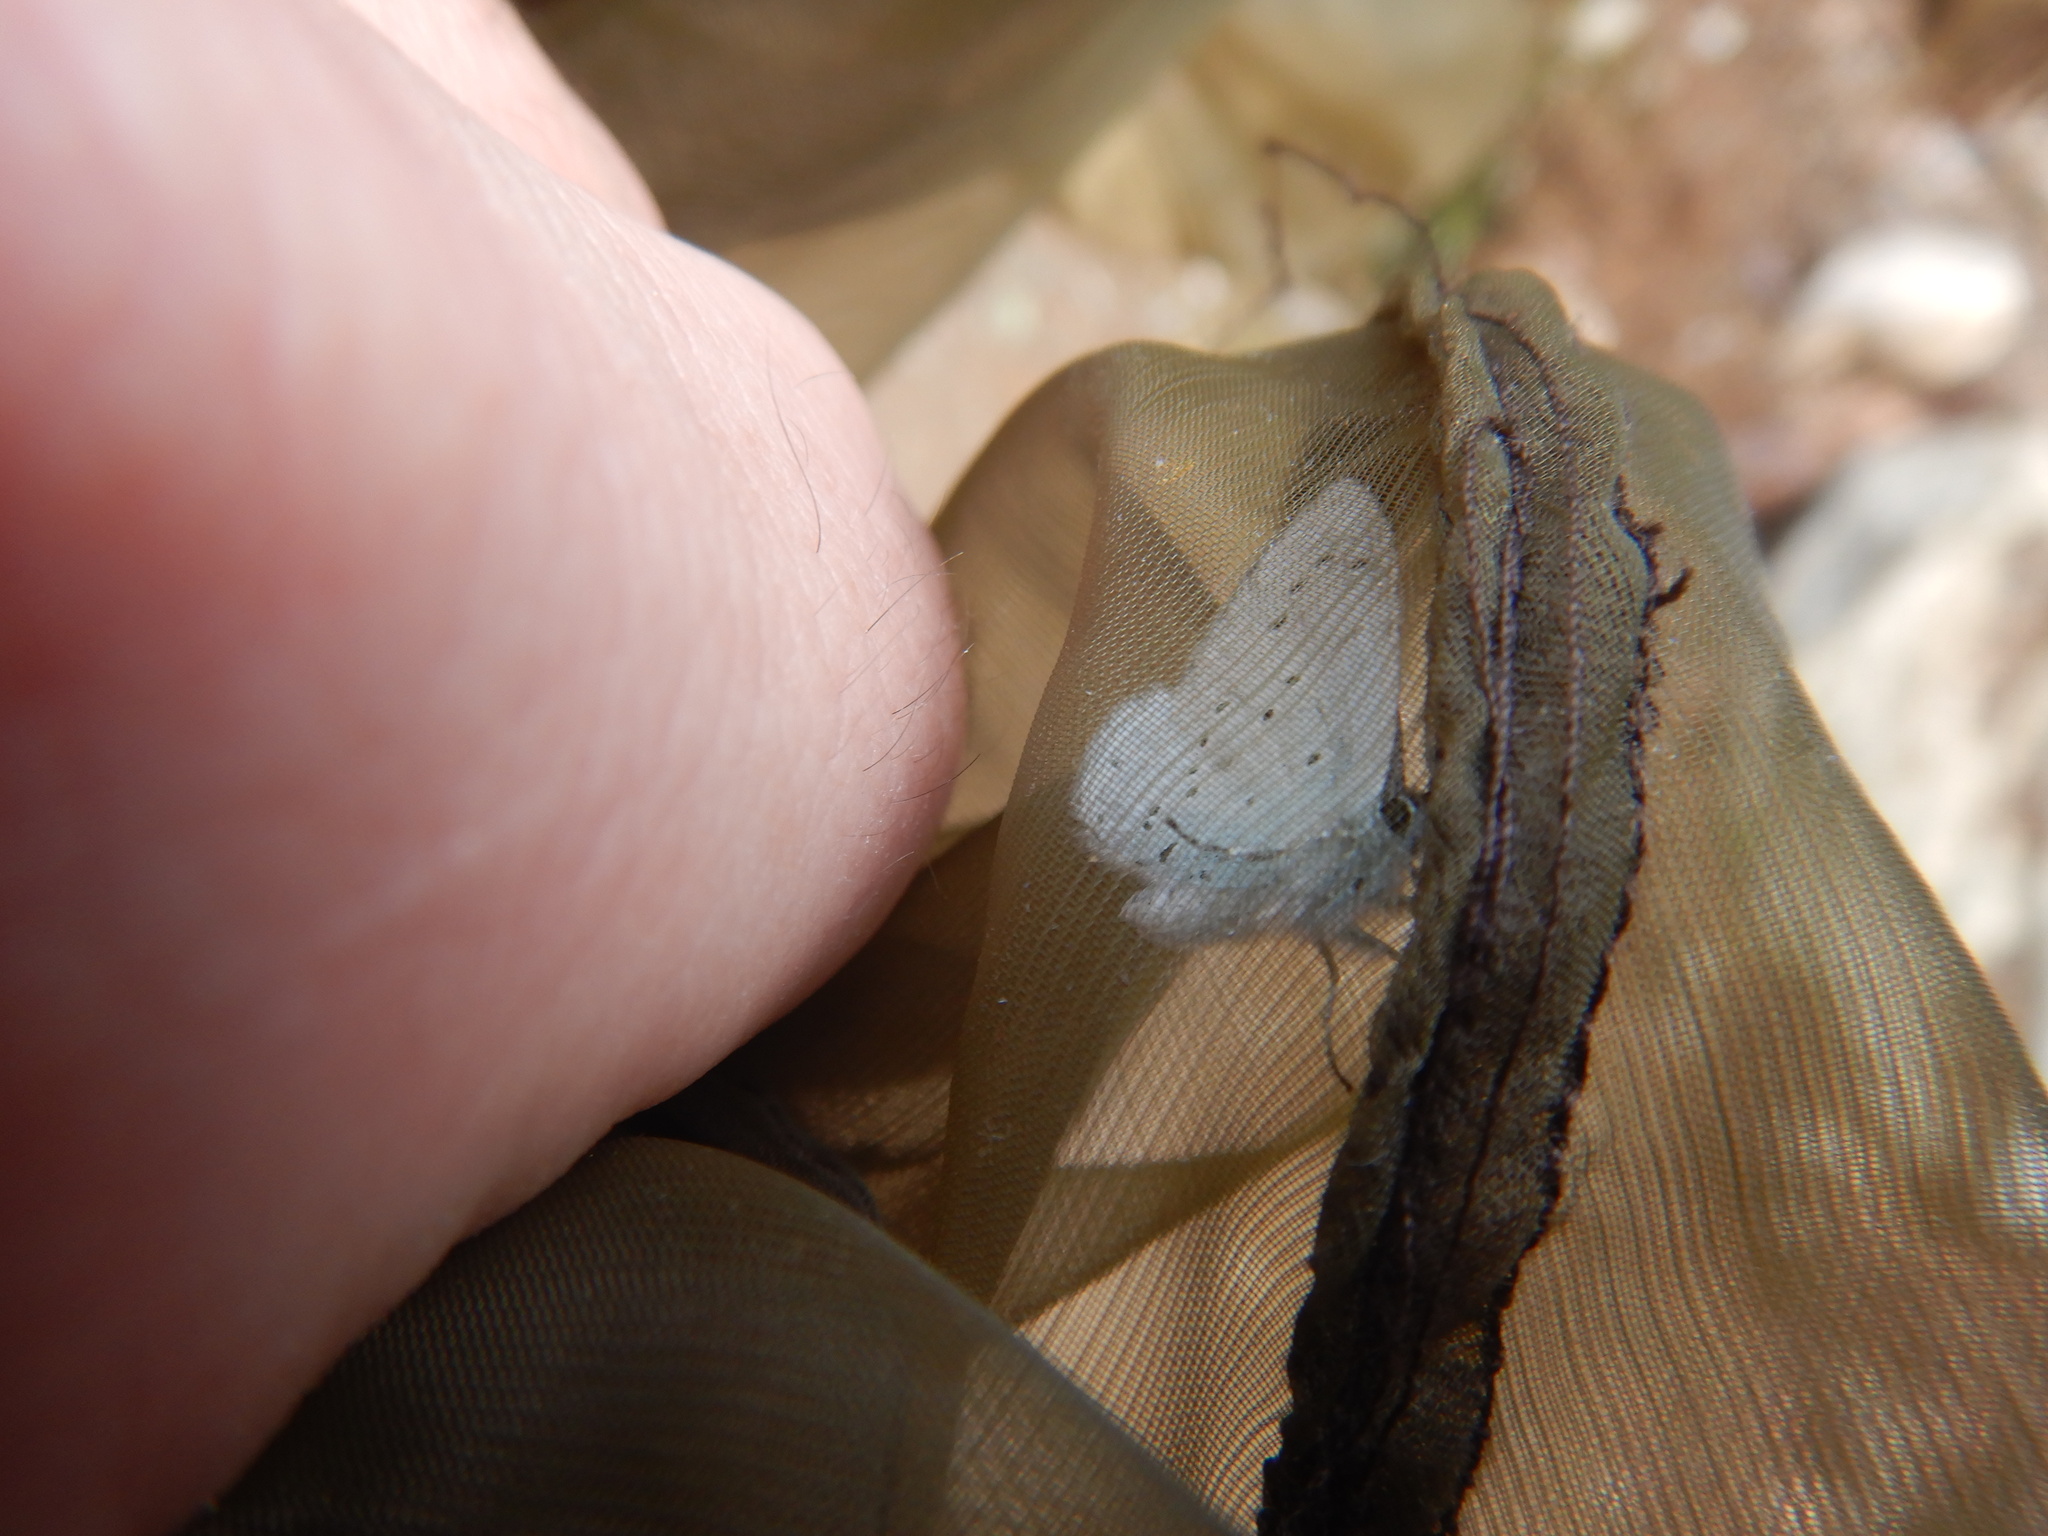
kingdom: Animalia
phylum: Arthropoda
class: Insecta
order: Lepidoptera
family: Lycaenidae
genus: Celastrina
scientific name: Celastrina argiolus
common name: Holly blue
